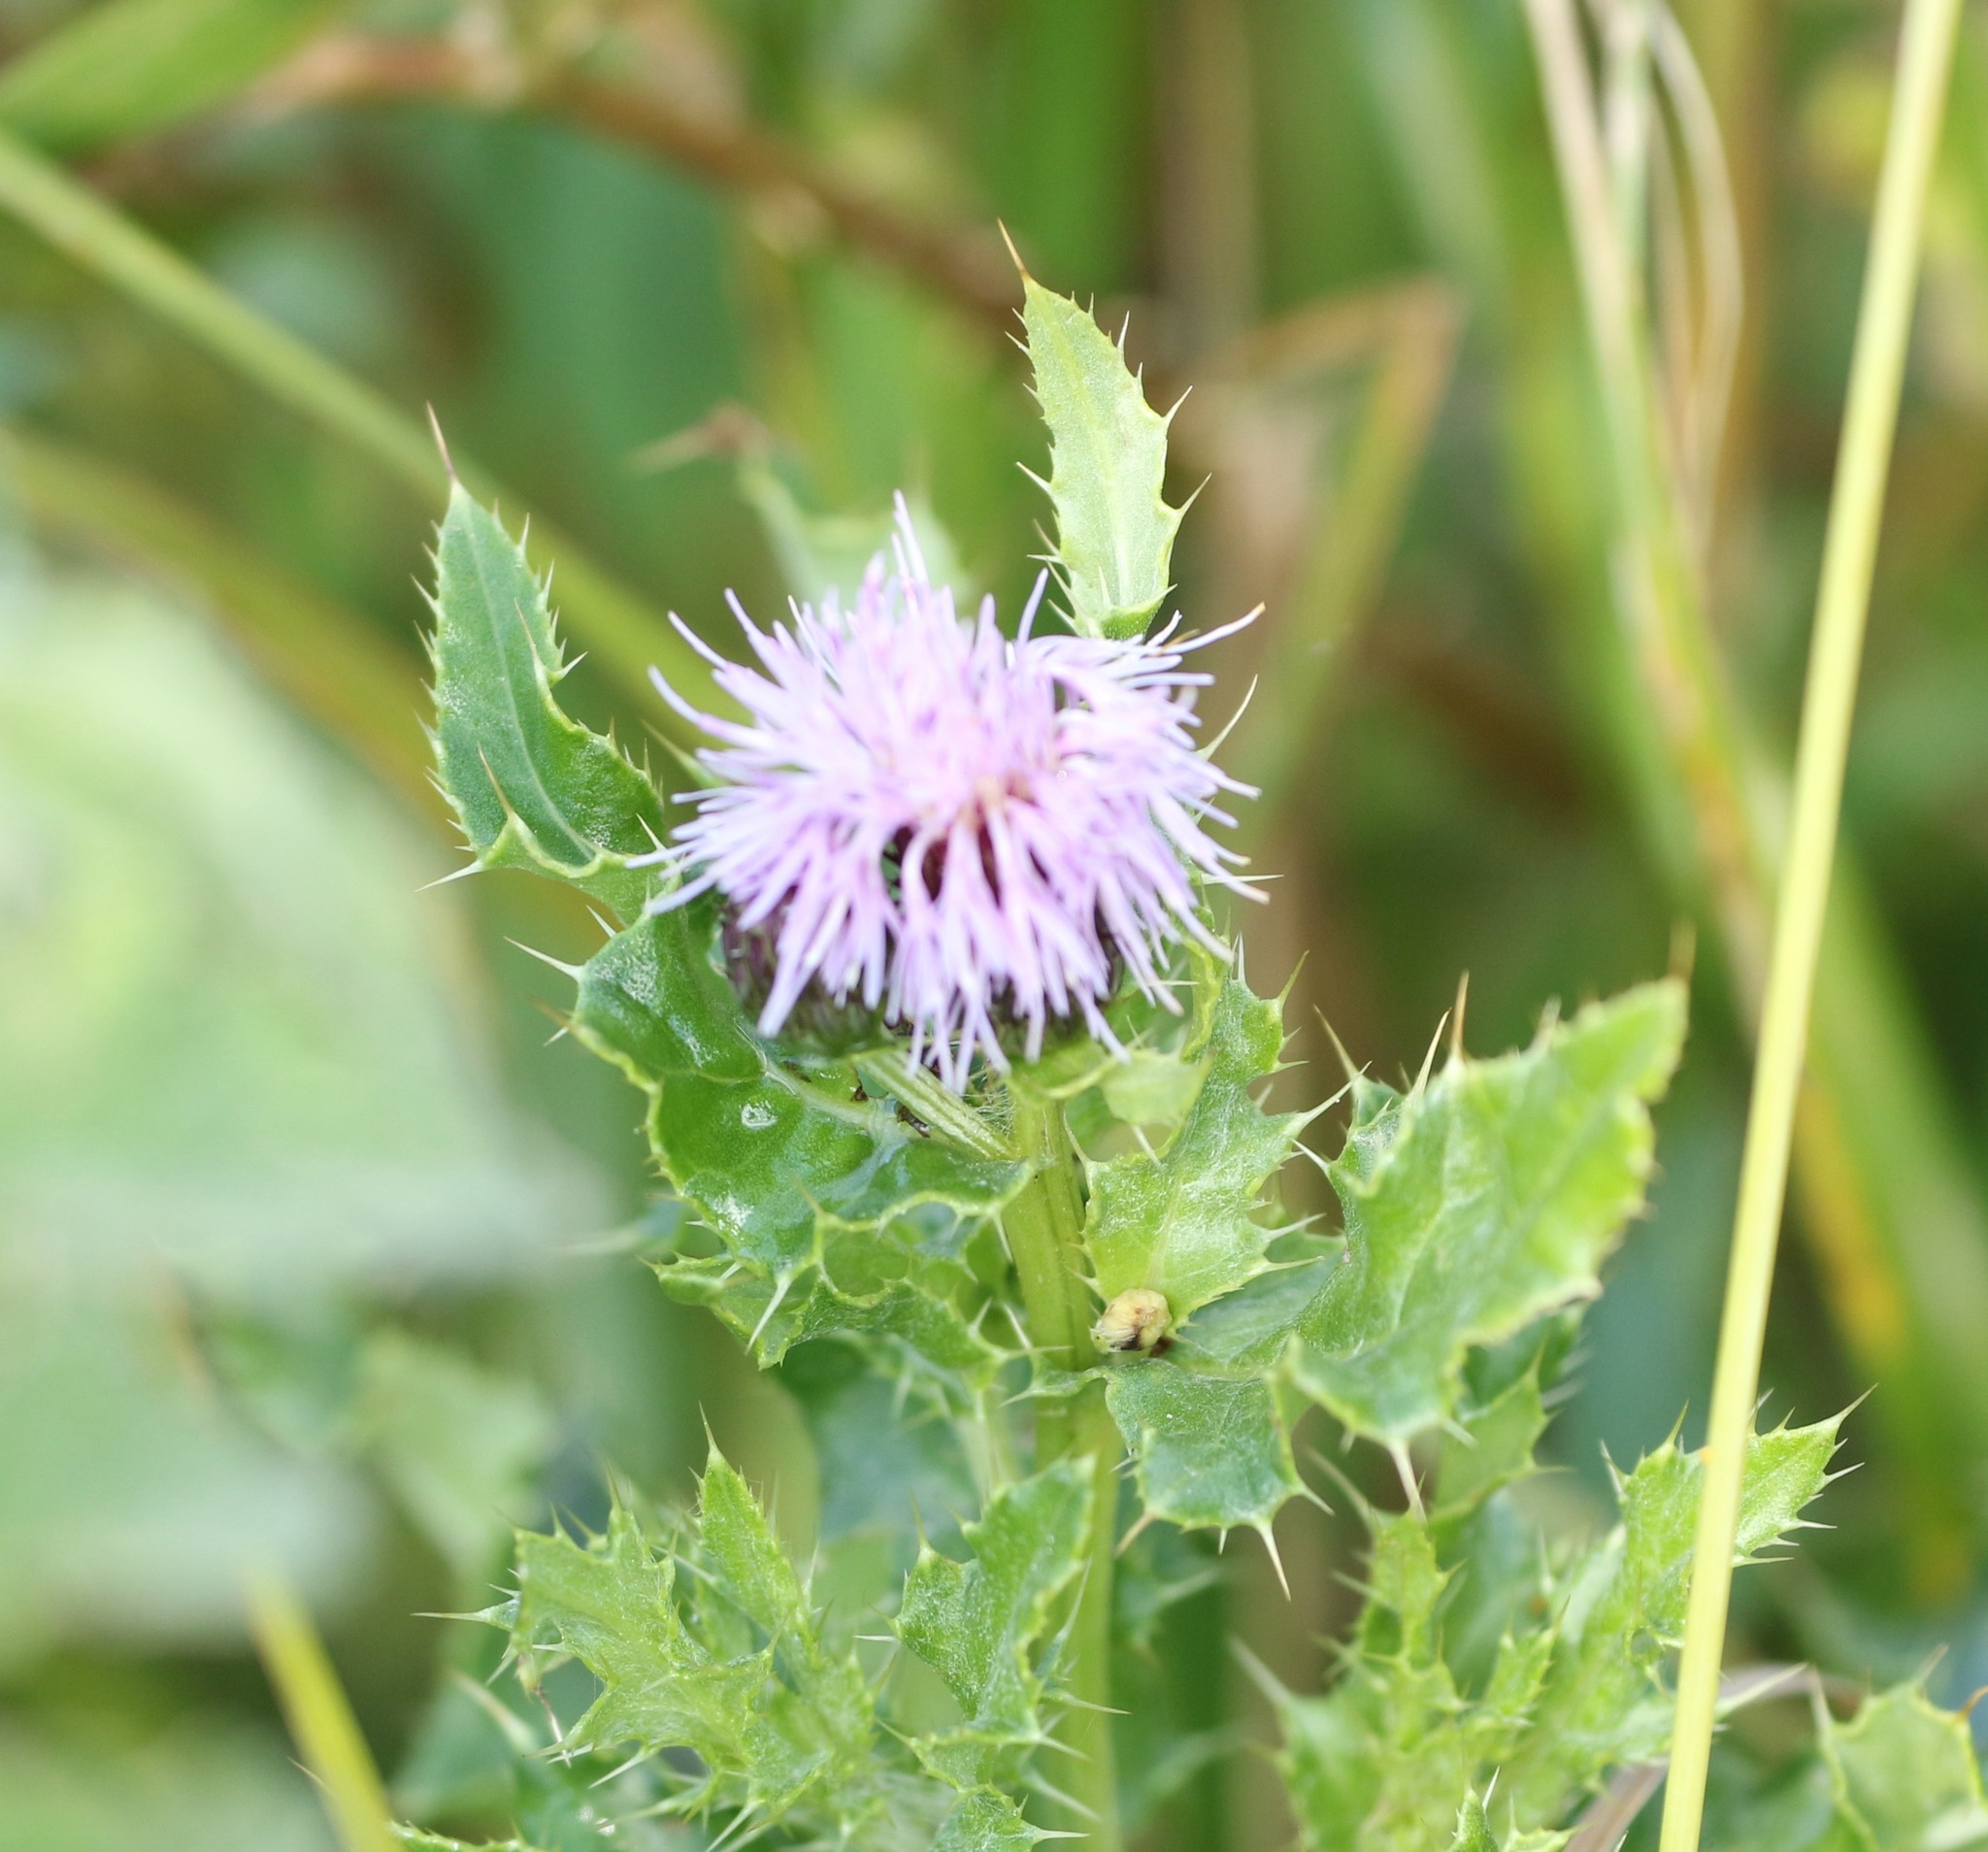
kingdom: Plantae
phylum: Tracheophyta
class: Magnoliopsida
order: Asterales
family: Asteraceae
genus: Cirsium
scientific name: Cirsium arvense
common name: Creeping thistle
